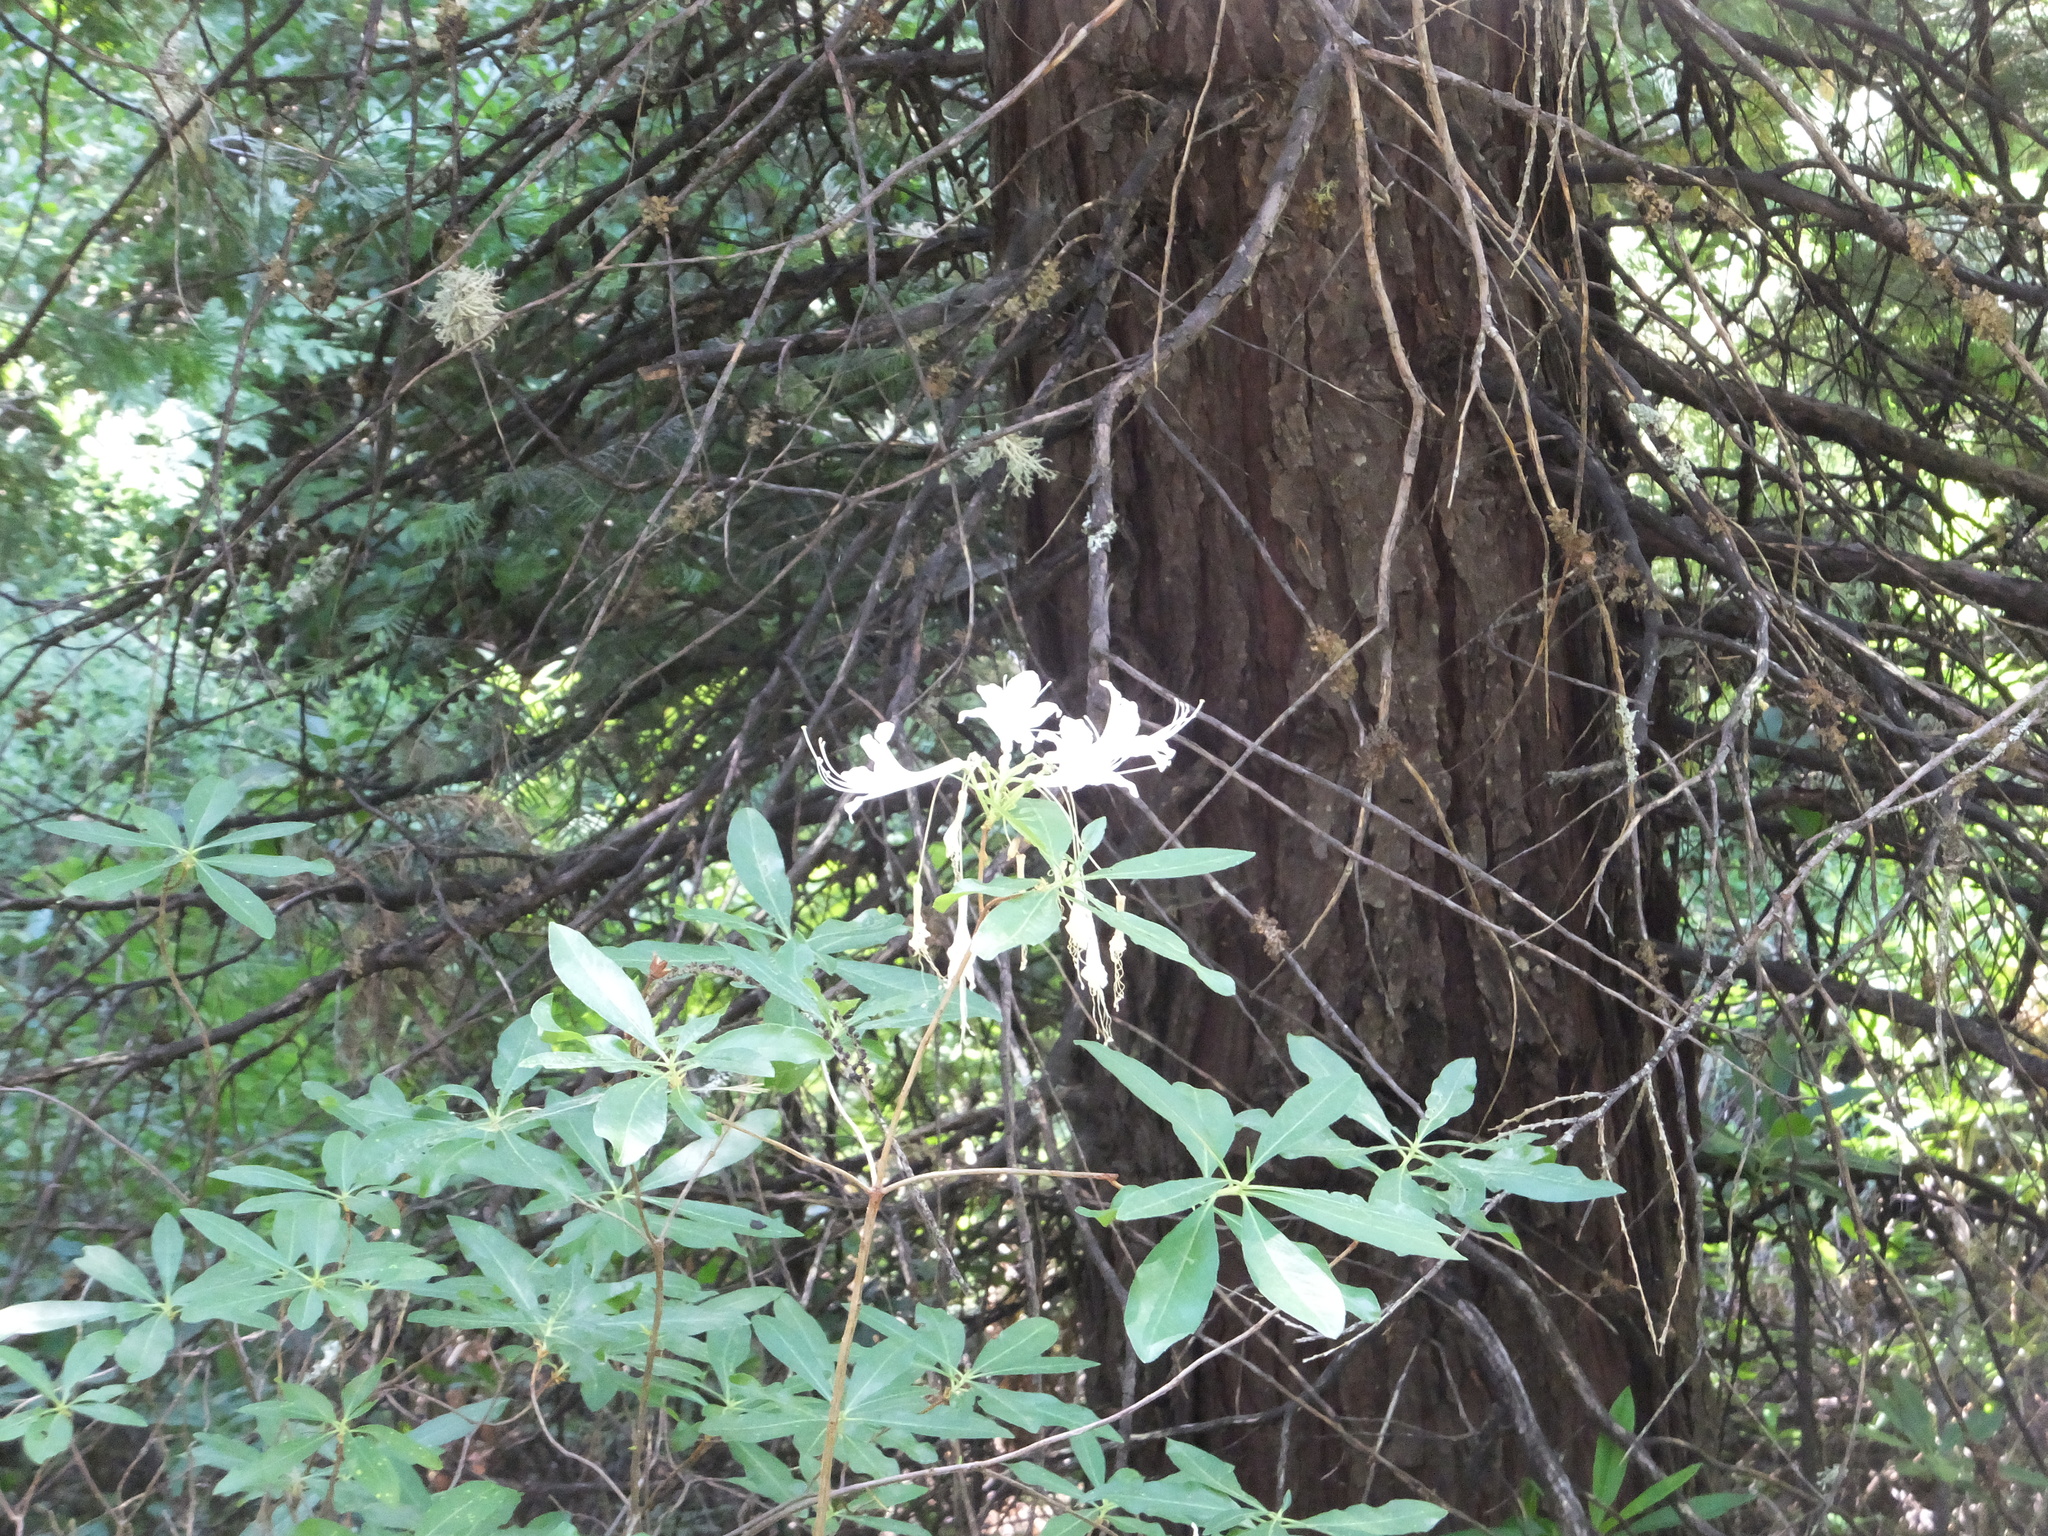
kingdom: Plantae
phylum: Tracheophyta
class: Magnoliopsida
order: Ericales
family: Ericaceae
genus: Rhododendron
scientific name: Rhododendron occidentale
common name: Western azalea
